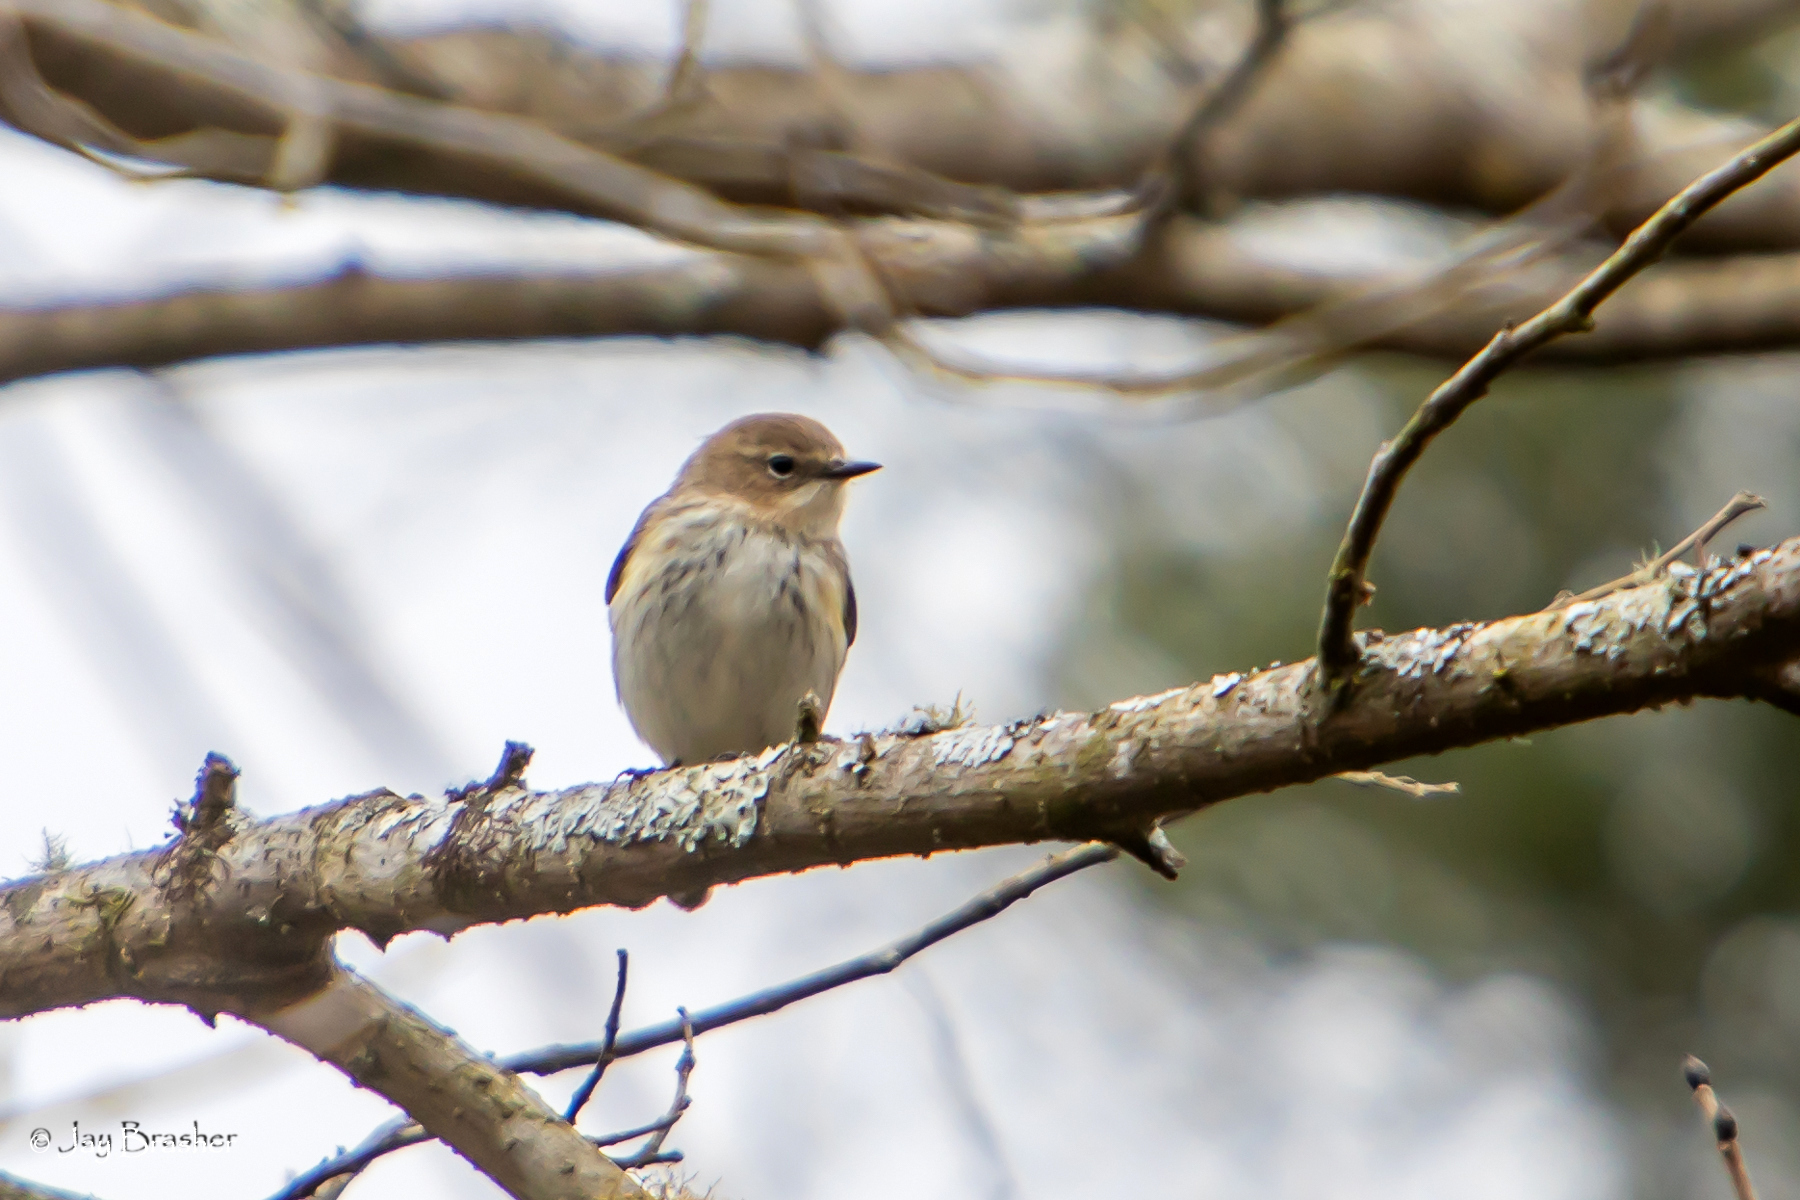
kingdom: Animalia
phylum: Chordata
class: Aves
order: Passeriformes
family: Parulidae
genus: Setophaga
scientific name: Setophaga coronata
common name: Myrtle warbler
